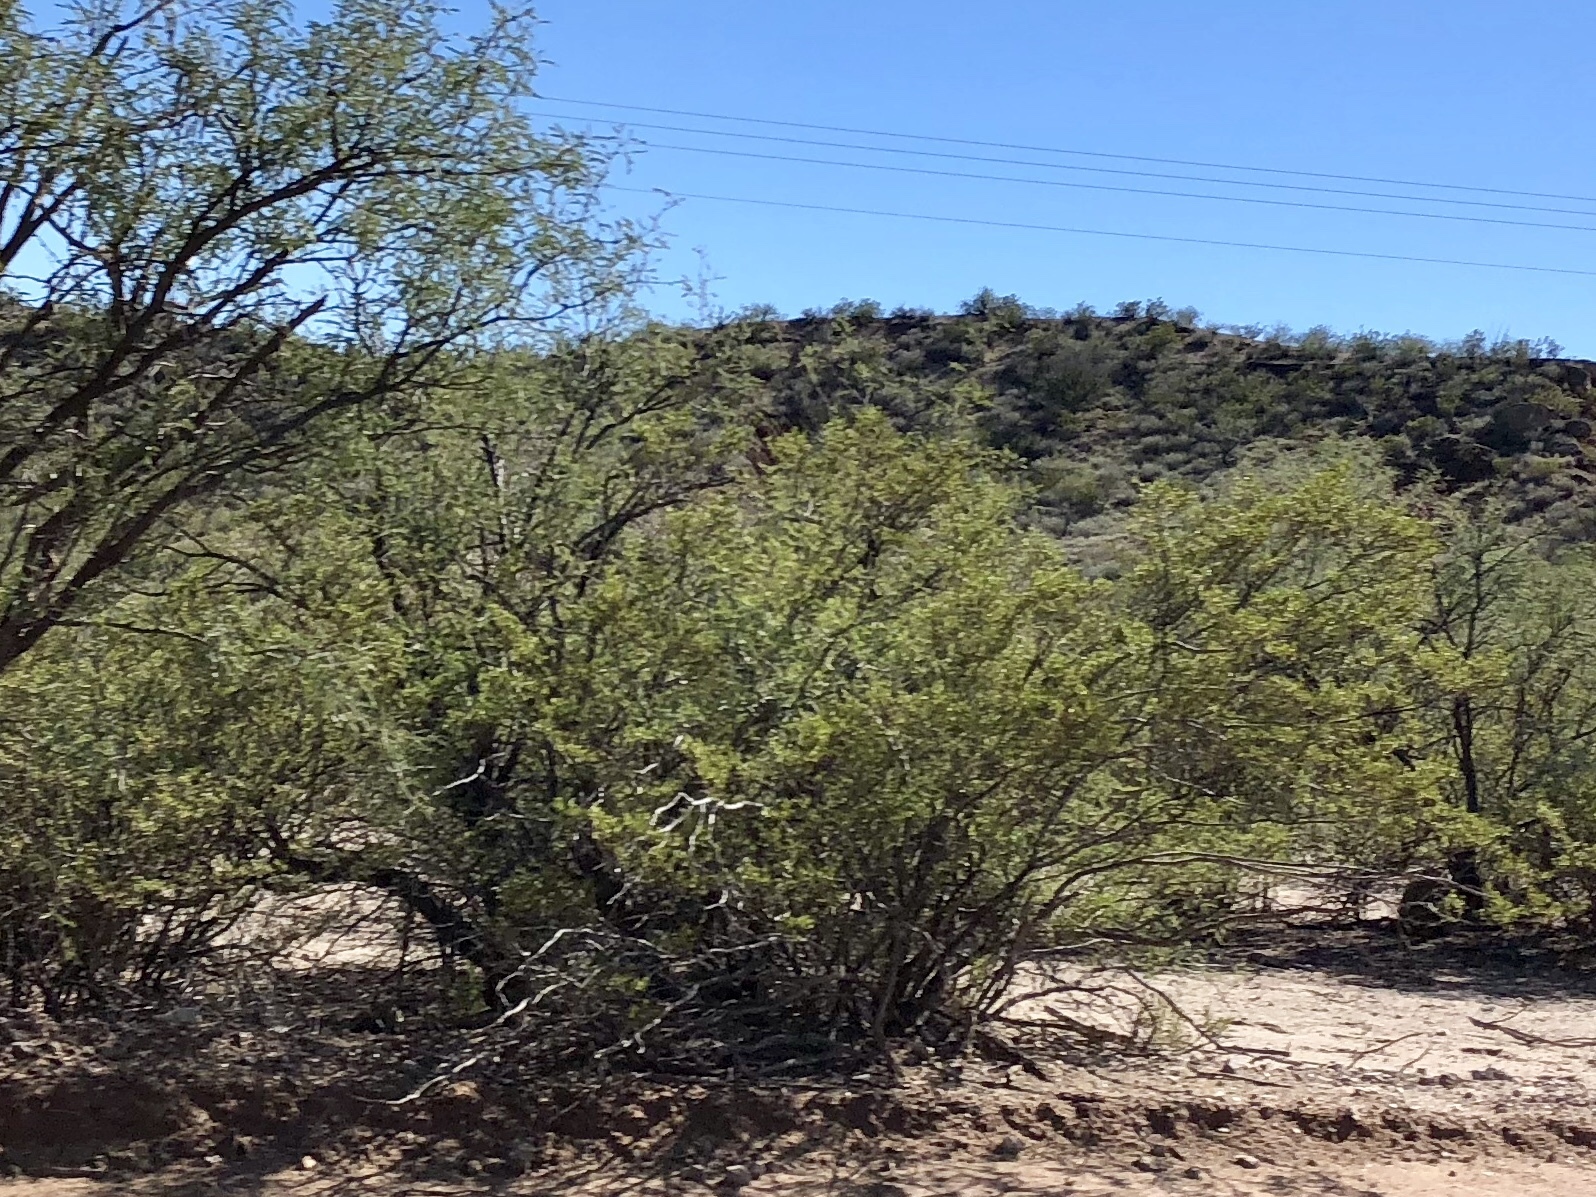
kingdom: Plantae
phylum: Tracheophyta
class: Magnoliopsida
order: Zygophyllales
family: Zygophyllaceae
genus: Larrea
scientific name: Larrea tridentata
